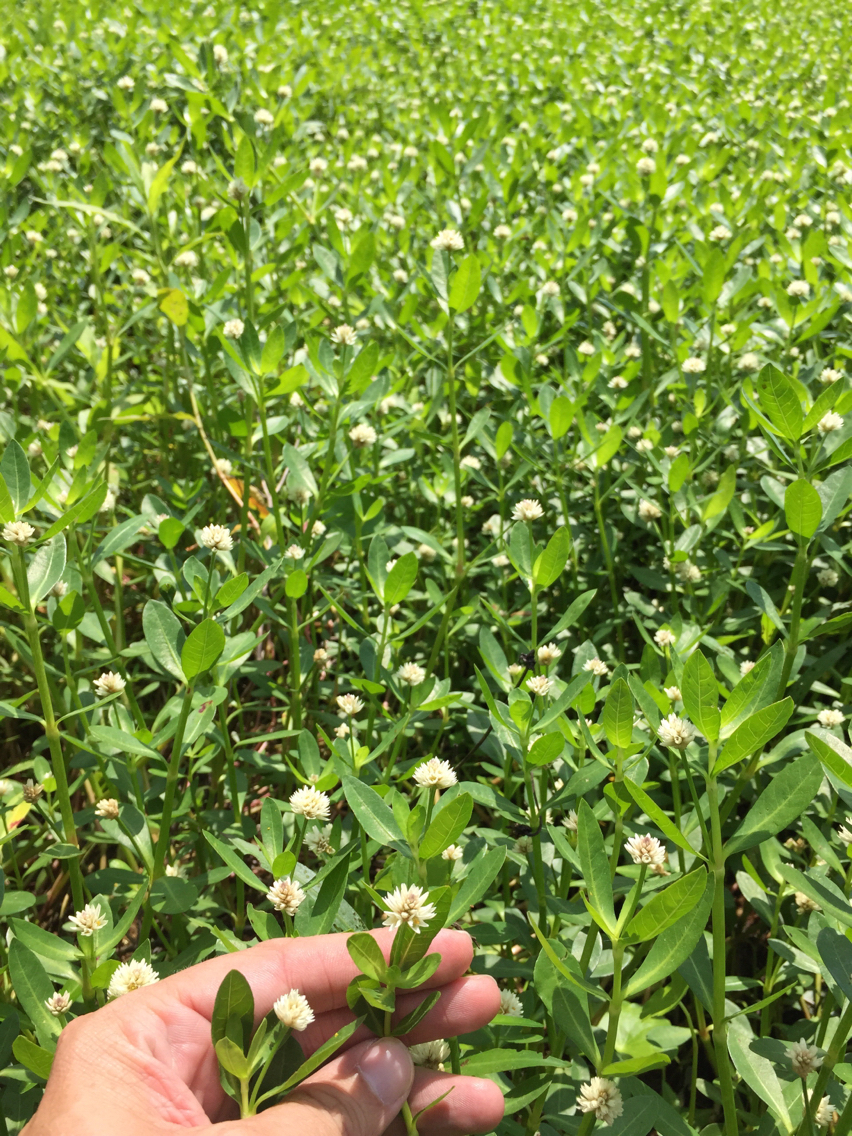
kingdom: Plantae
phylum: Tracheophyta
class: Magnoliopsida
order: Caryophyllales
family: Amaranthaceae
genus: Alternanthera
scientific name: Alternanthera philoxeroides
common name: Alligatorweed
